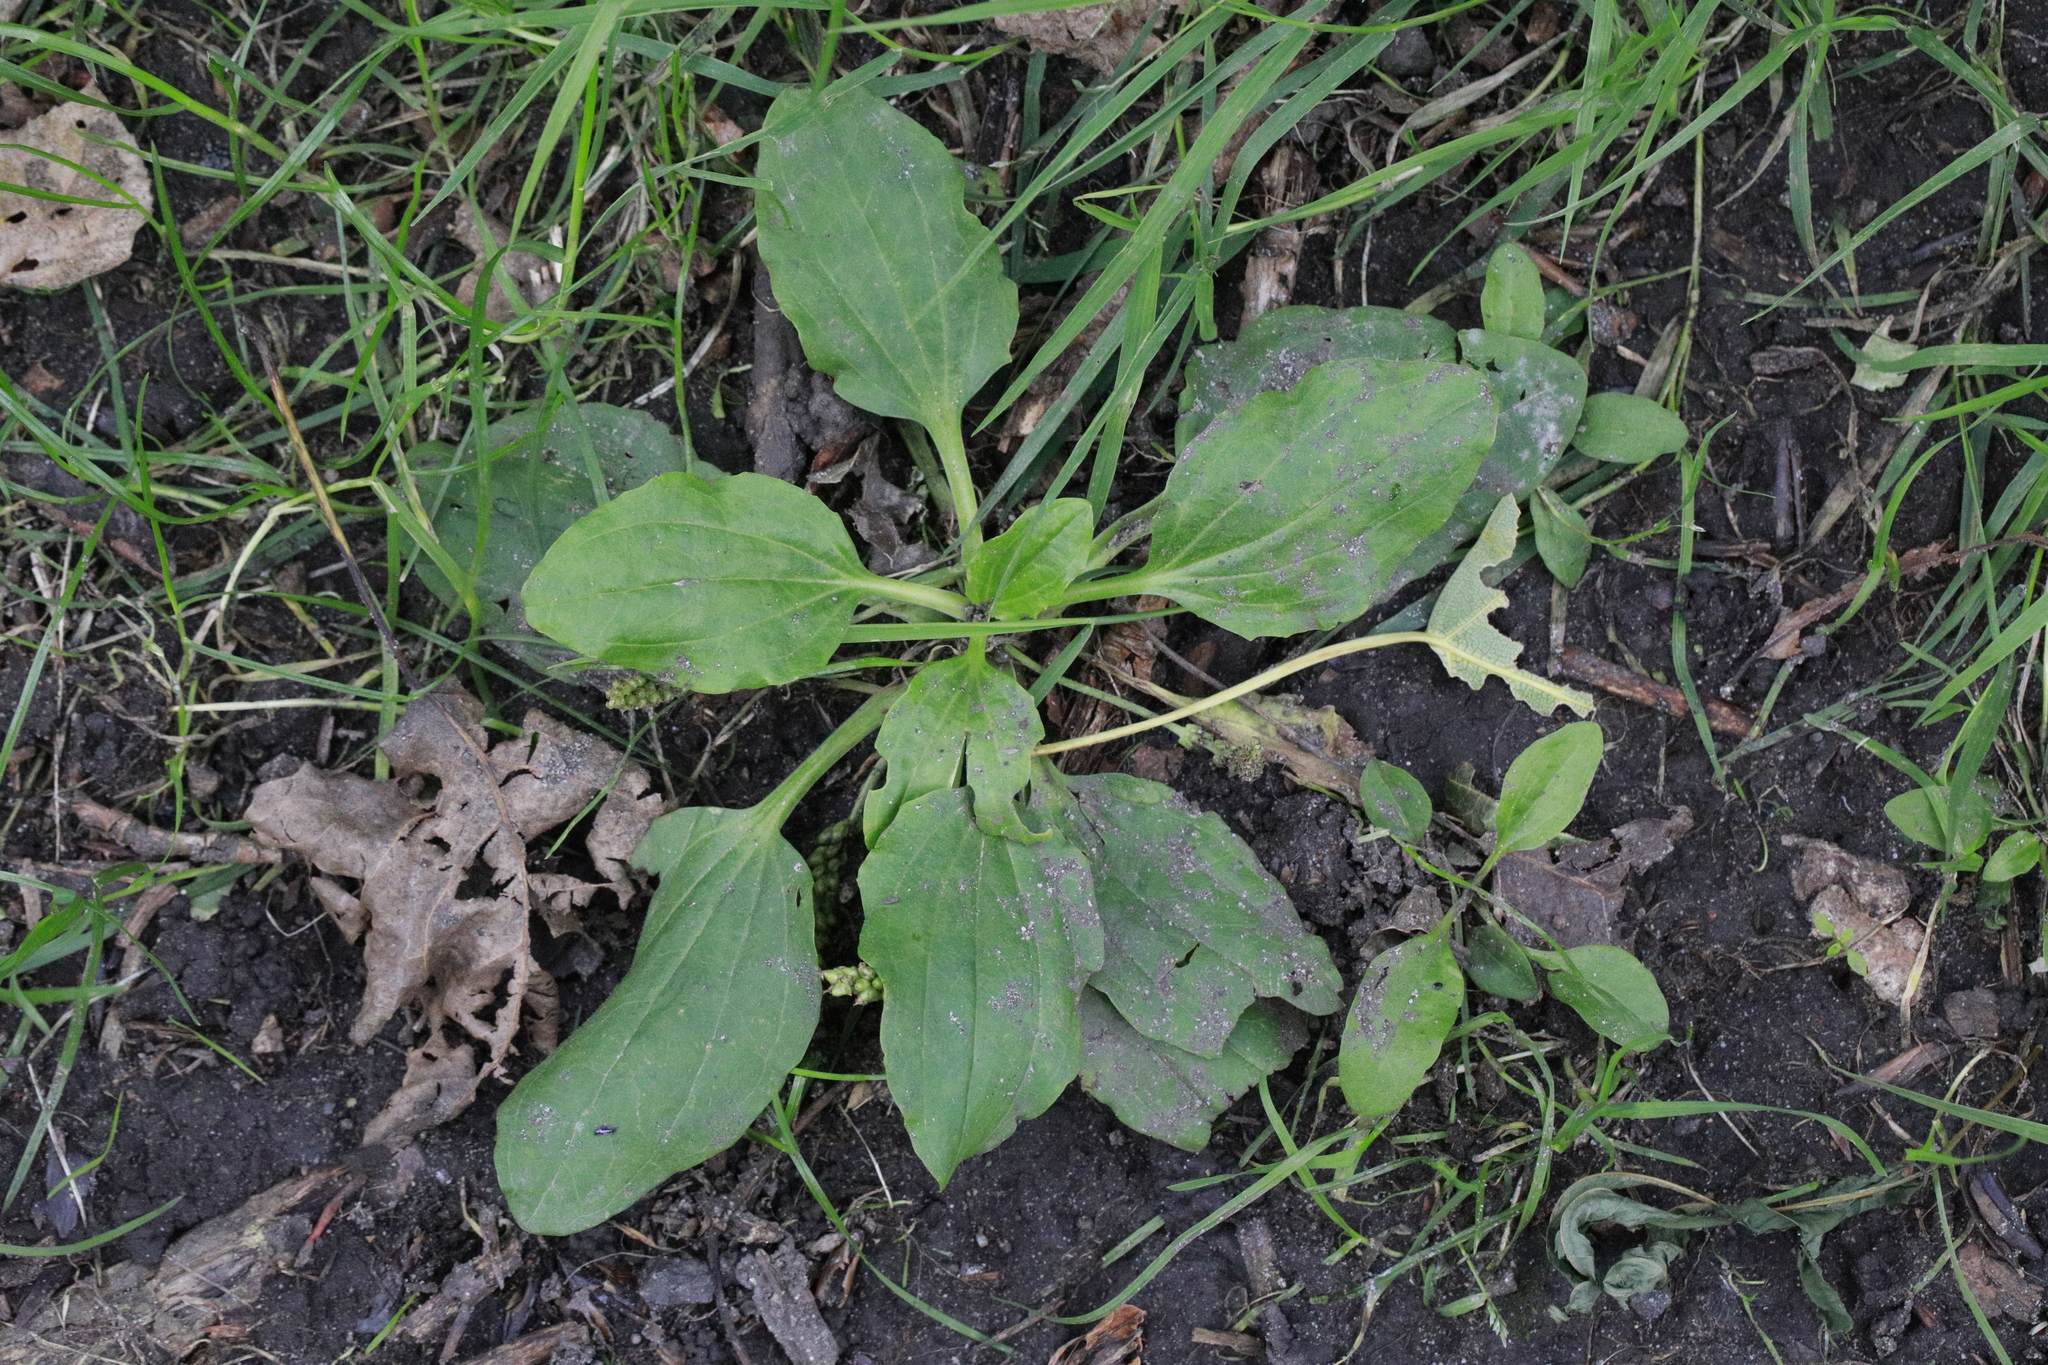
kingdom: Plantae
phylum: Tracheophyta
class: Magnoliopsida
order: Lamiales
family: Plantaginaceae
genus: Plantago
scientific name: Plantago major
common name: Common plantain
